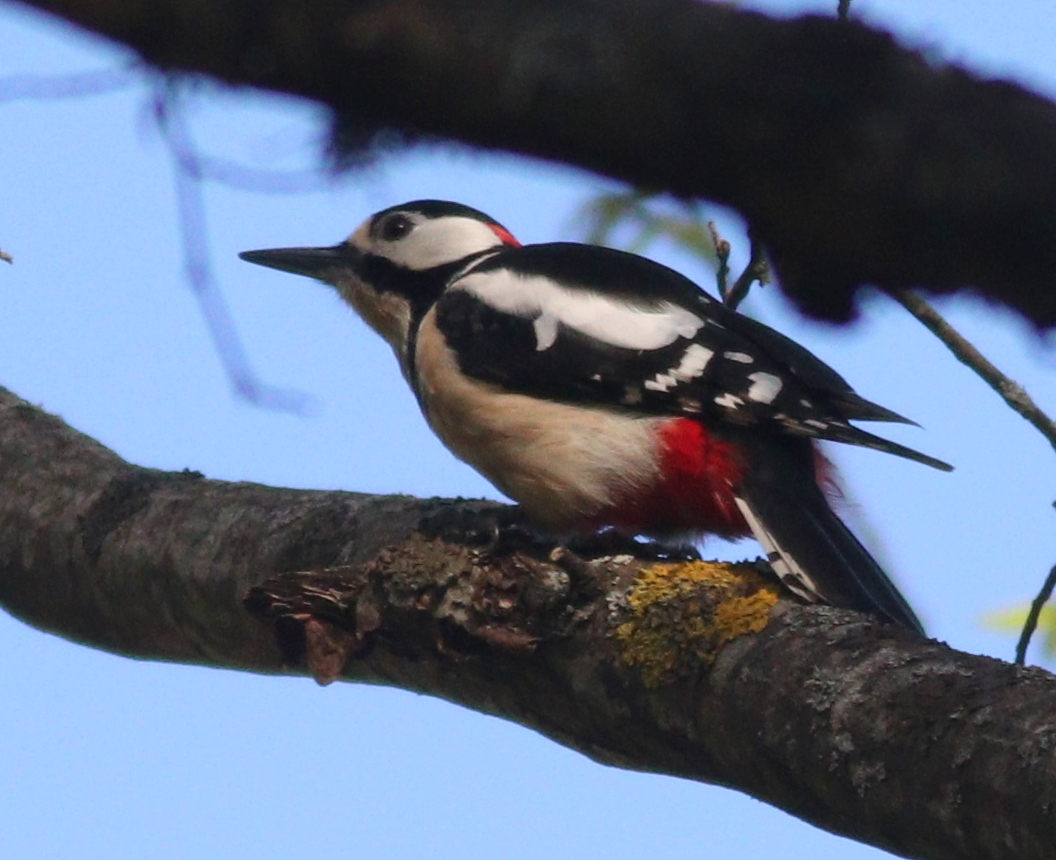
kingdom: Animalia
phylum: Chordata
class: Aves
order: Piciformes
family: Picidae
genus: Dendrocopos
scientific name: Dendrocopos major
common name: Great spotted woodpecker
